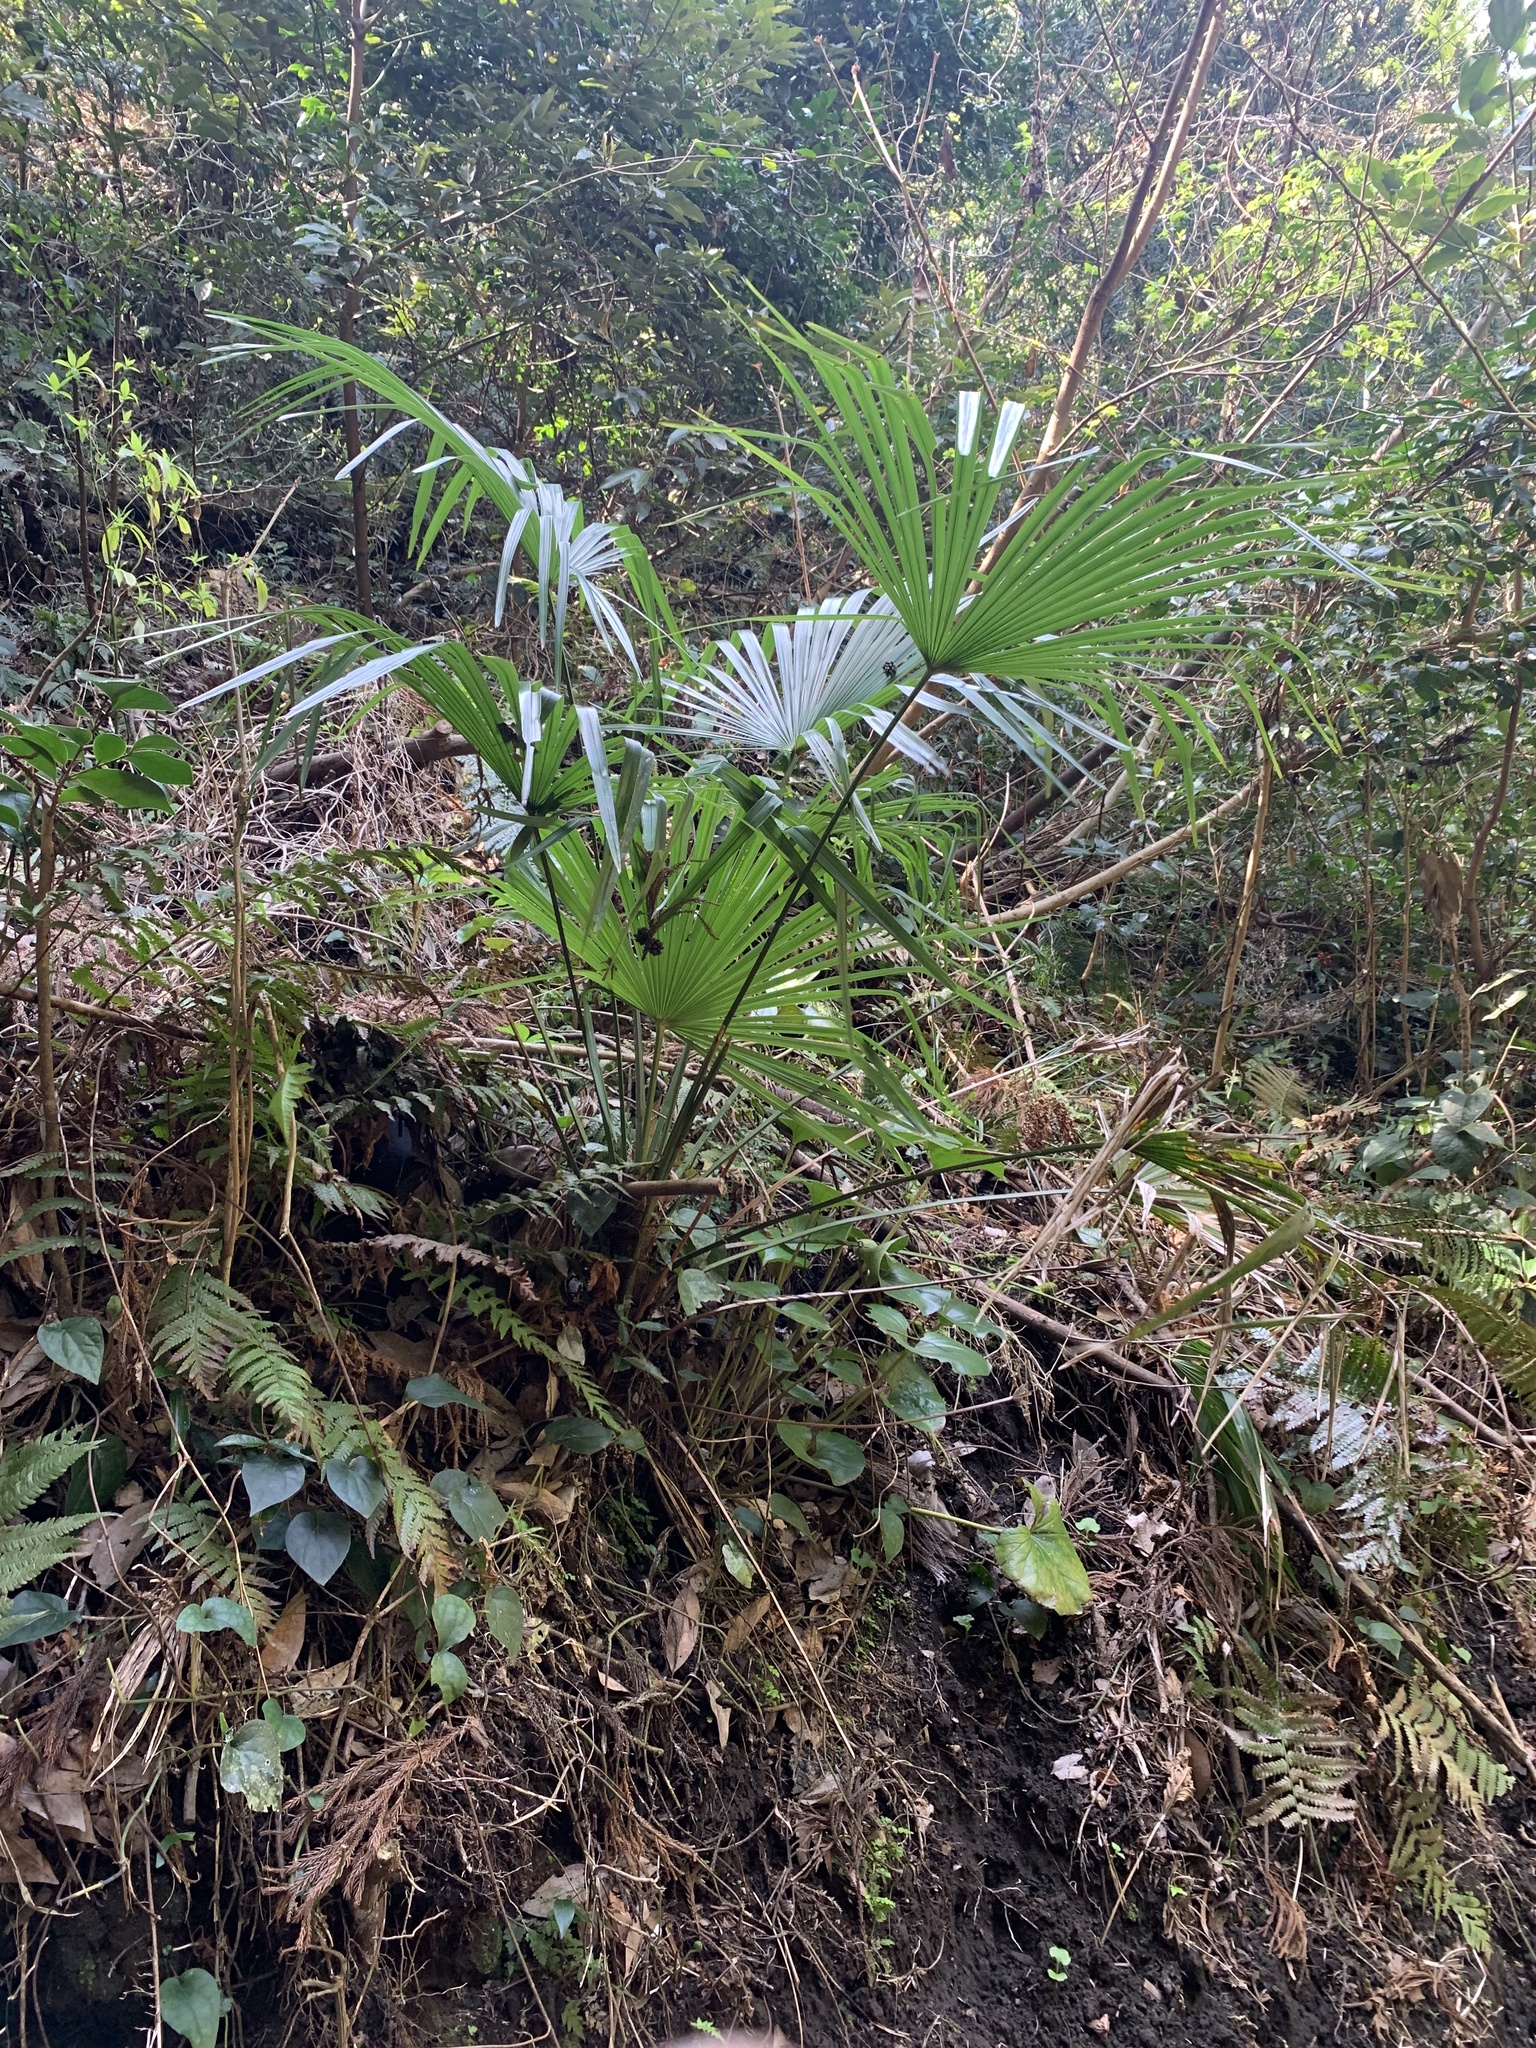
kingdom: Plantae
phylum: Tracheophyta
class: Liliopsida
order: Arecales
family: Arecaceae
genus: Trachycarpus
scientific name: Trachycarpus fortunei
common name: Chusan palm
